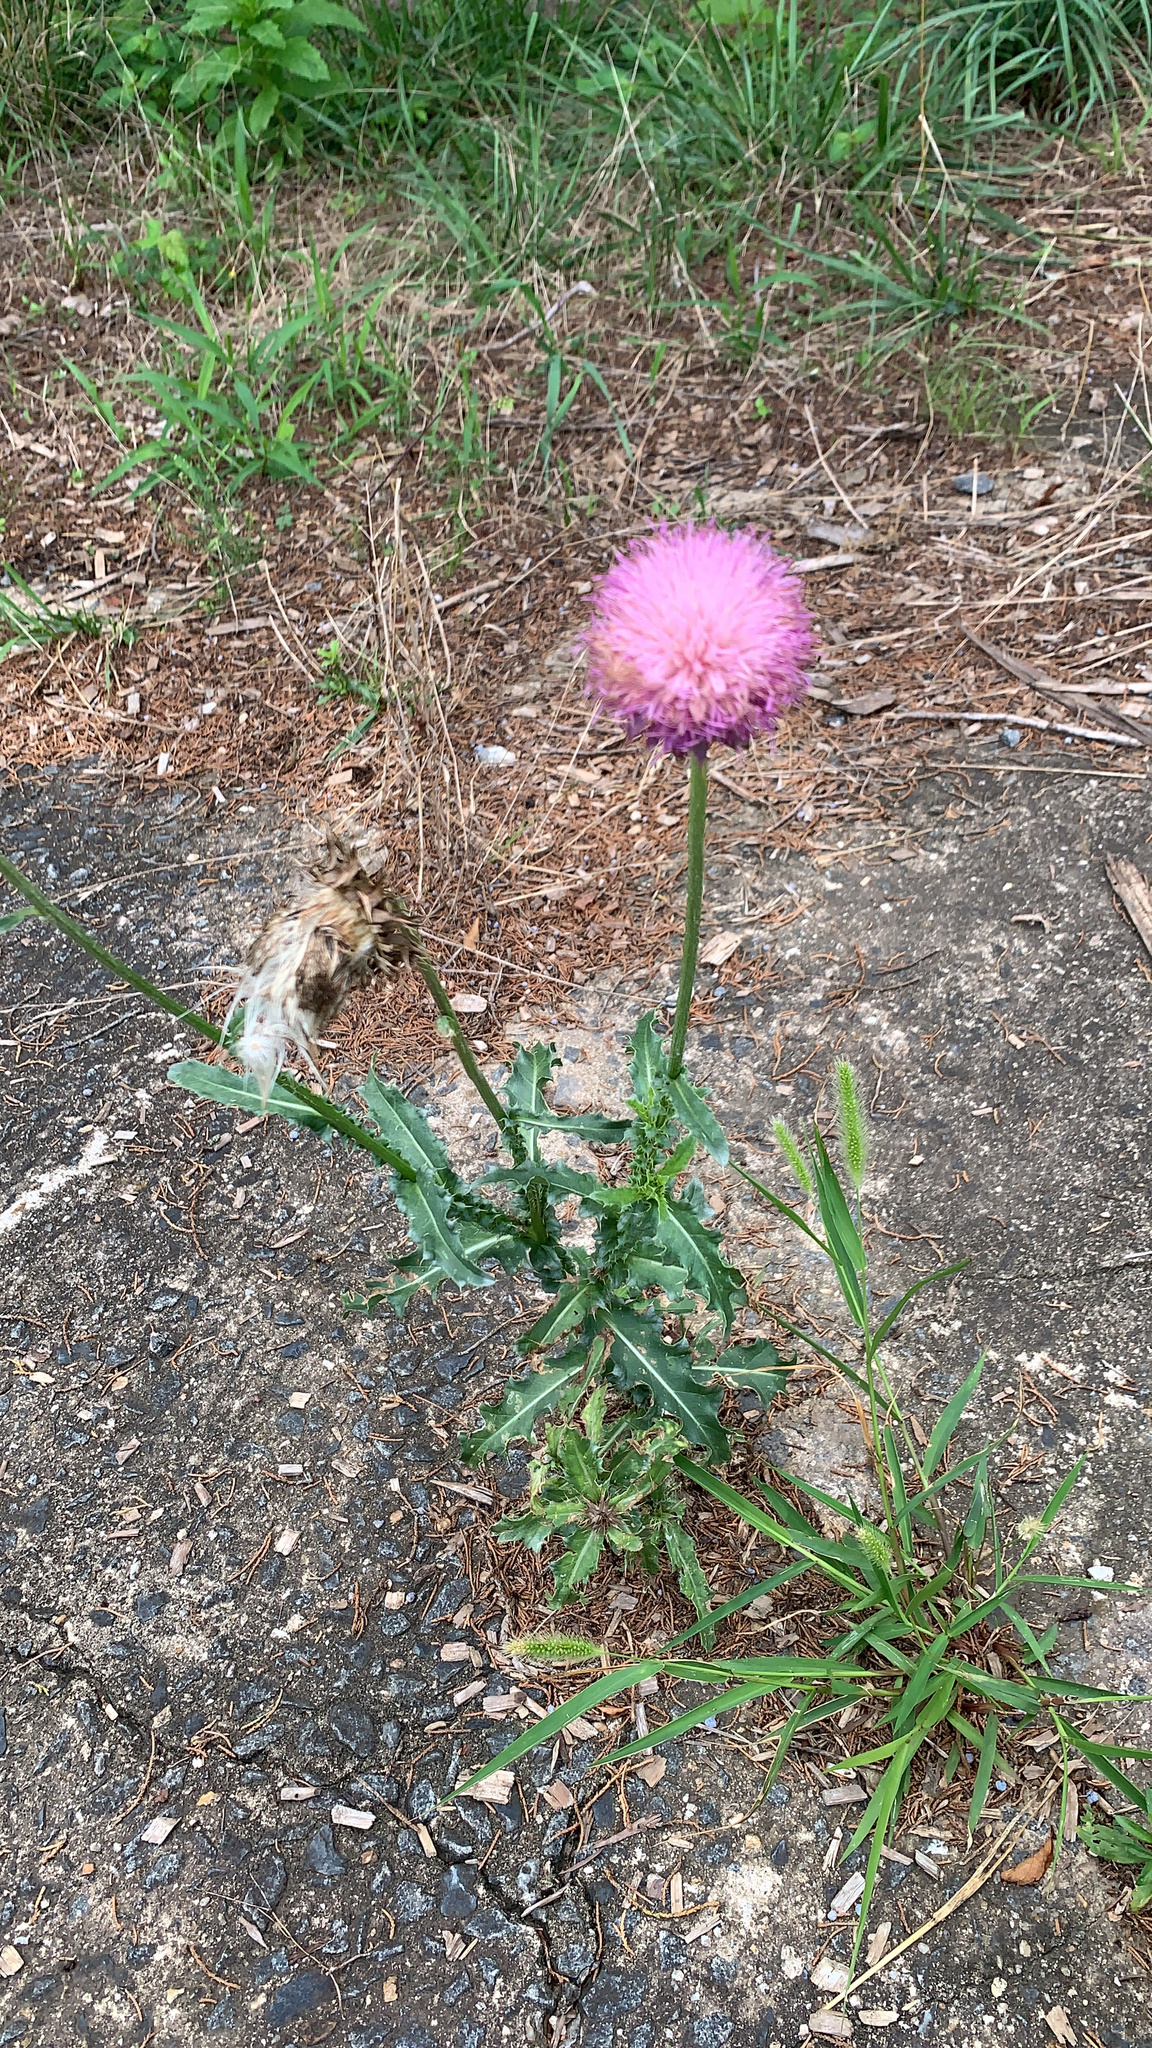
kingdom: Plantae
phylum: Tracheophyta
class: Magnoliopsida
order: Asterales
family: Asteraceae
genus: Carduus
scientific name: Carduus nutans
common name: Musk thistle
